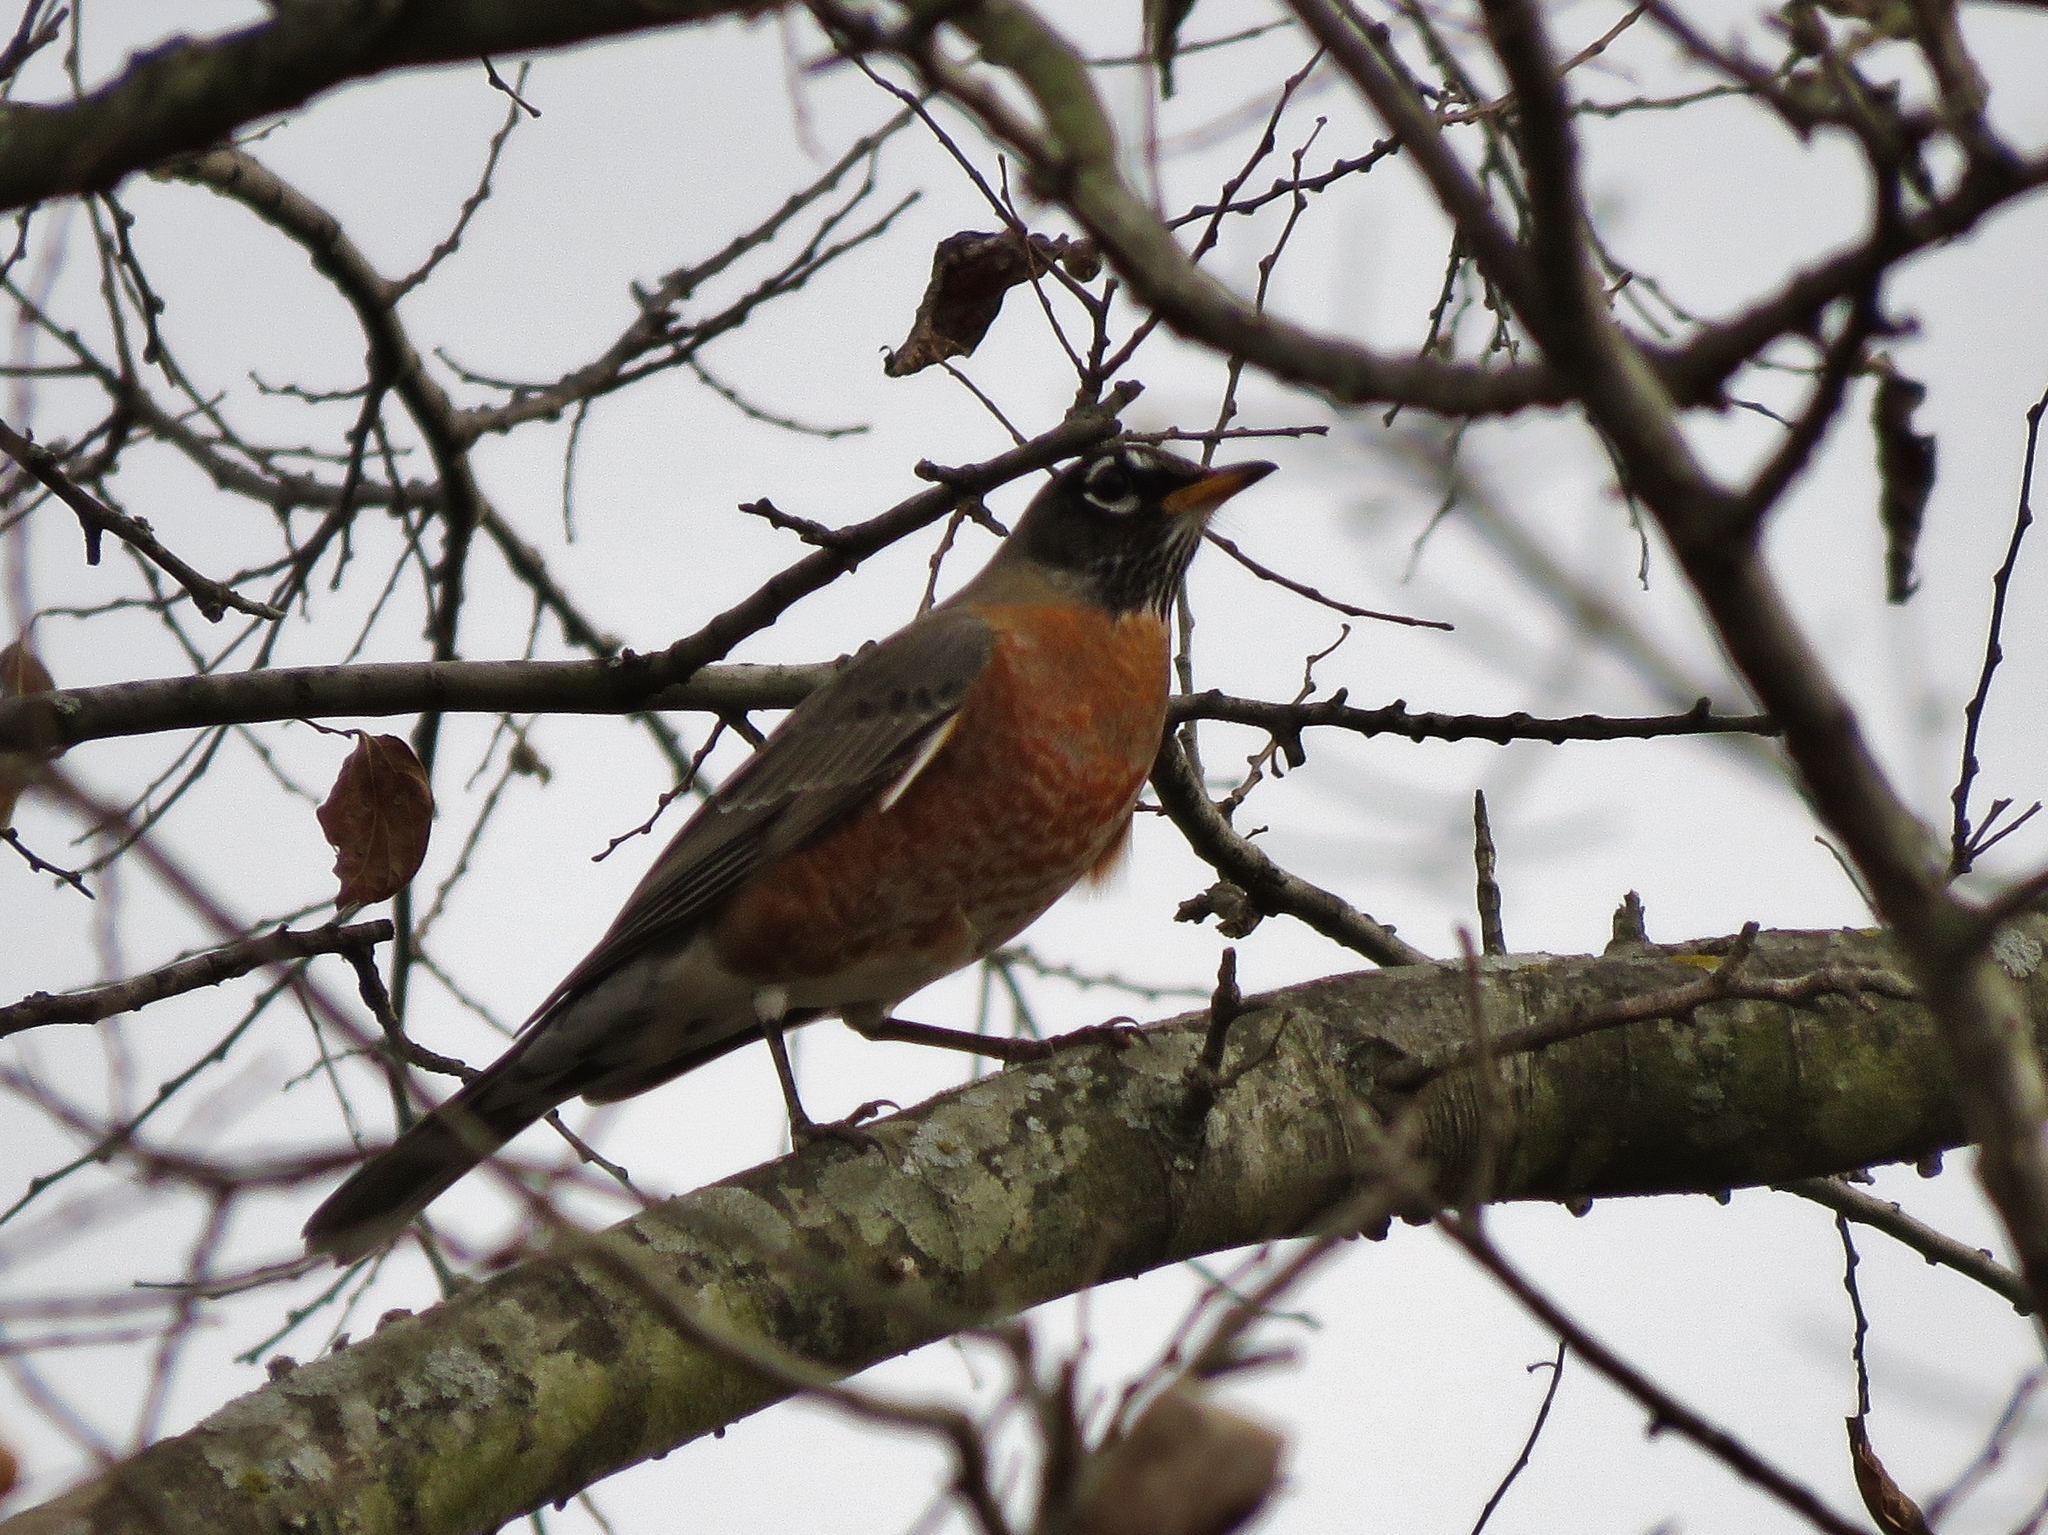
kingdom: Animalia
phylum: Chordata
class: Aves
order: Passeriformes
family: Turdidae
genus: Turdus
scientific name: Turdus migratorius
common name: American robin
